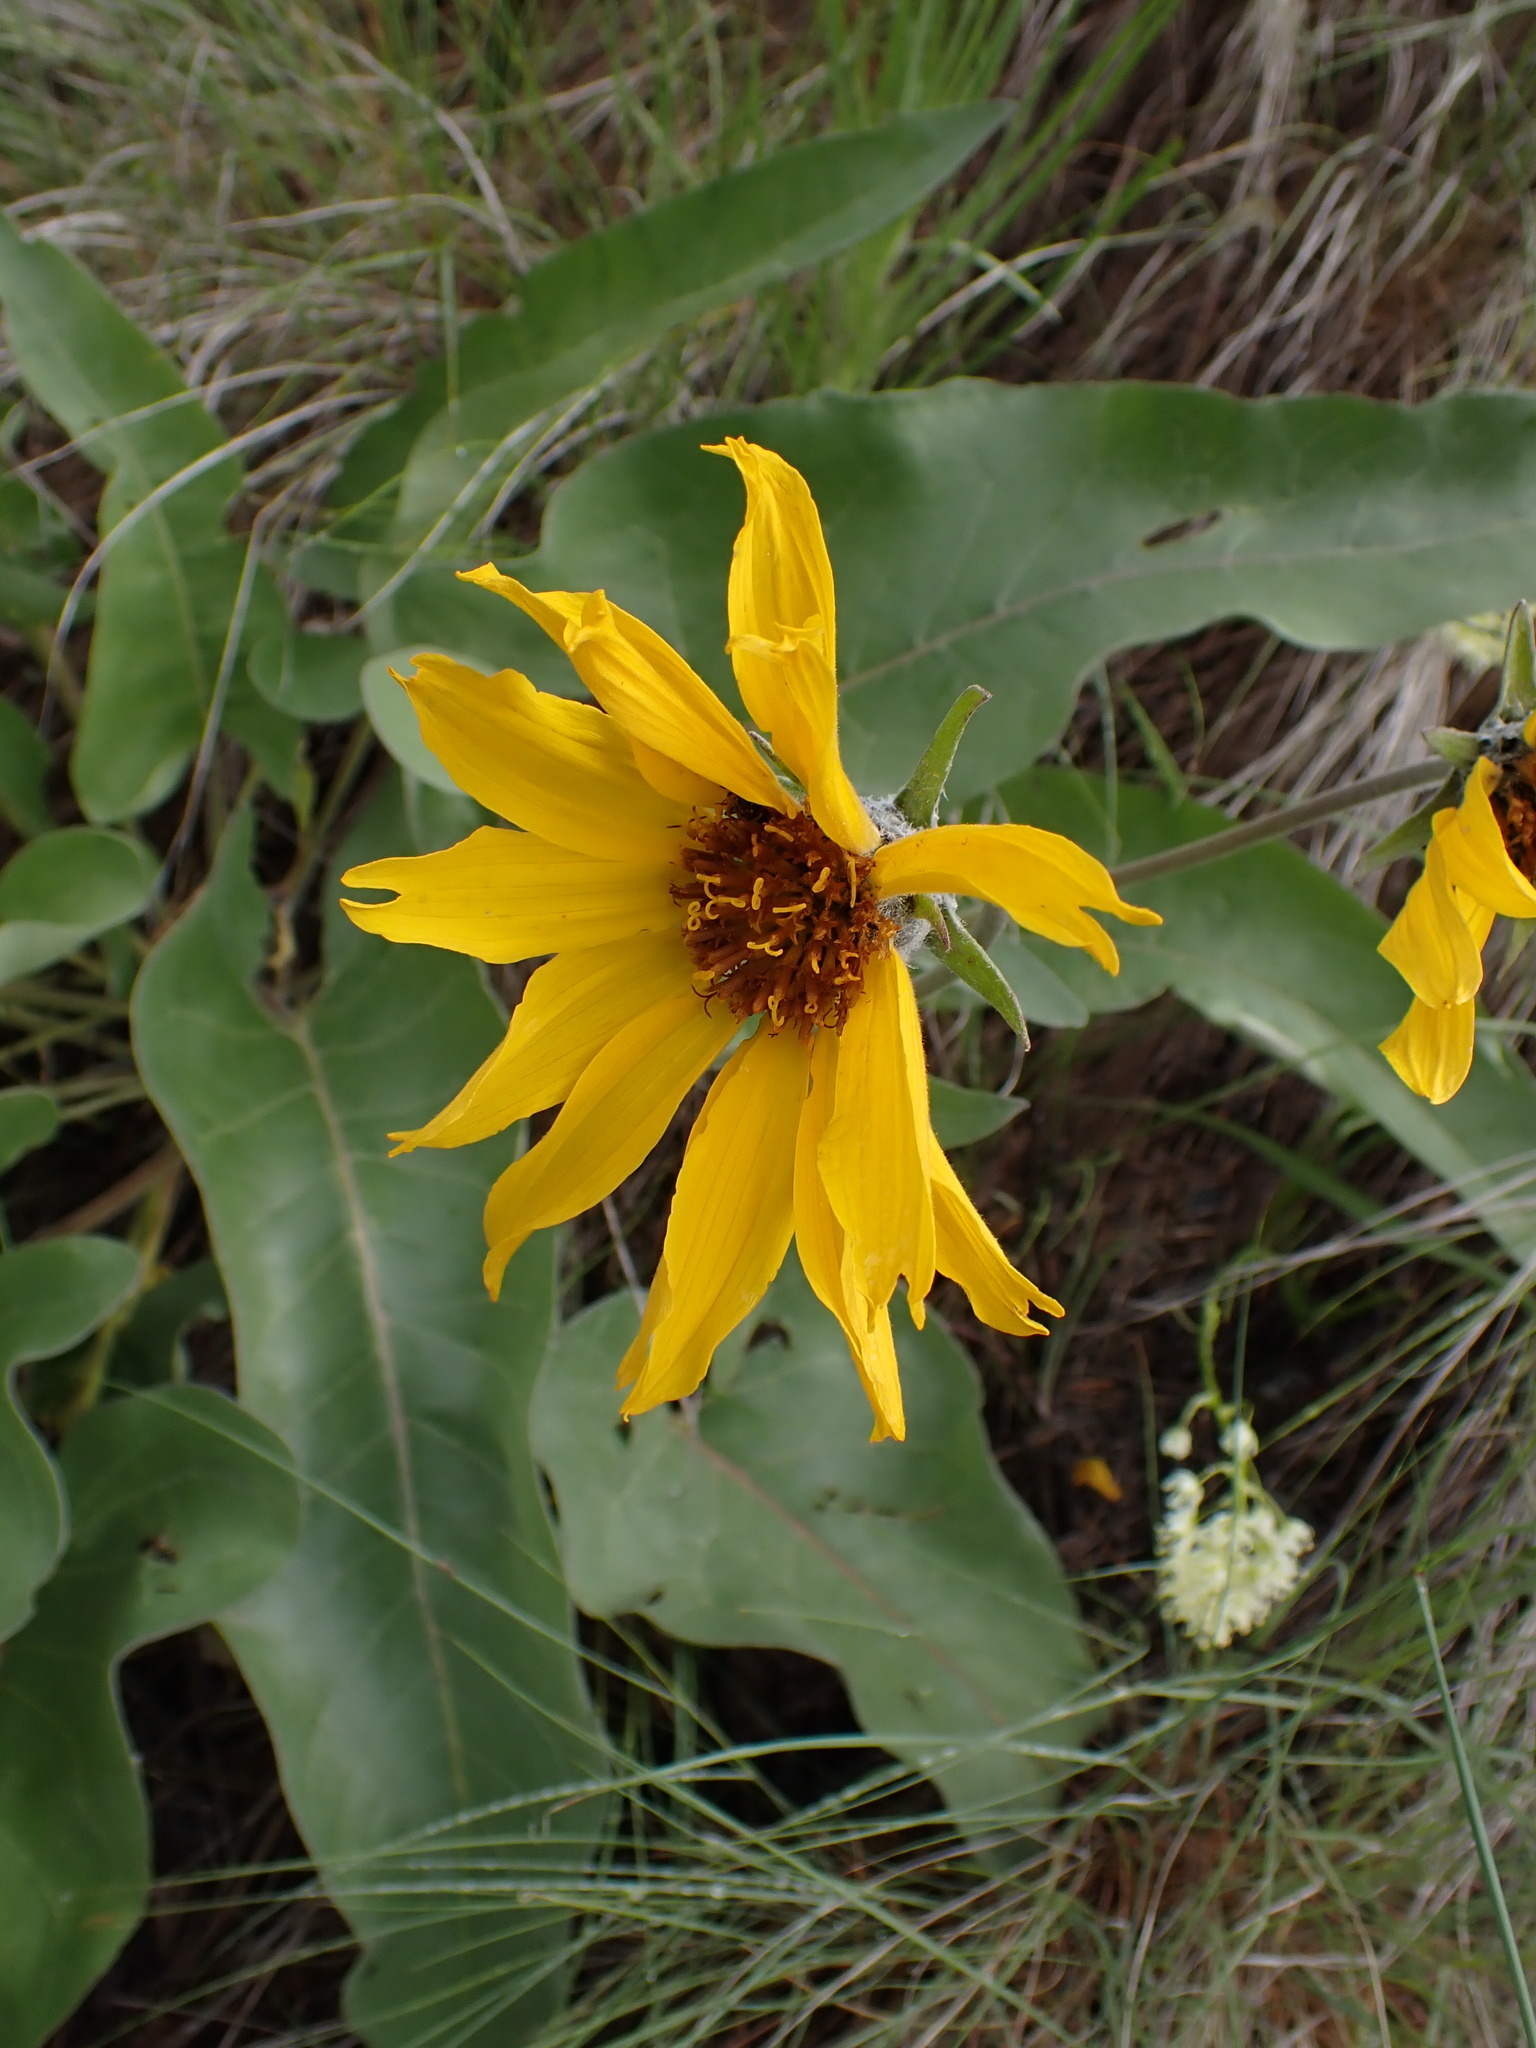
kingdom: Plantae
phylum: Tracheophyta
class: Magnoliopsida
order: Asterales
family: Asteraceae
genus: Wyethia
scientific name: Wyethia sagittata
